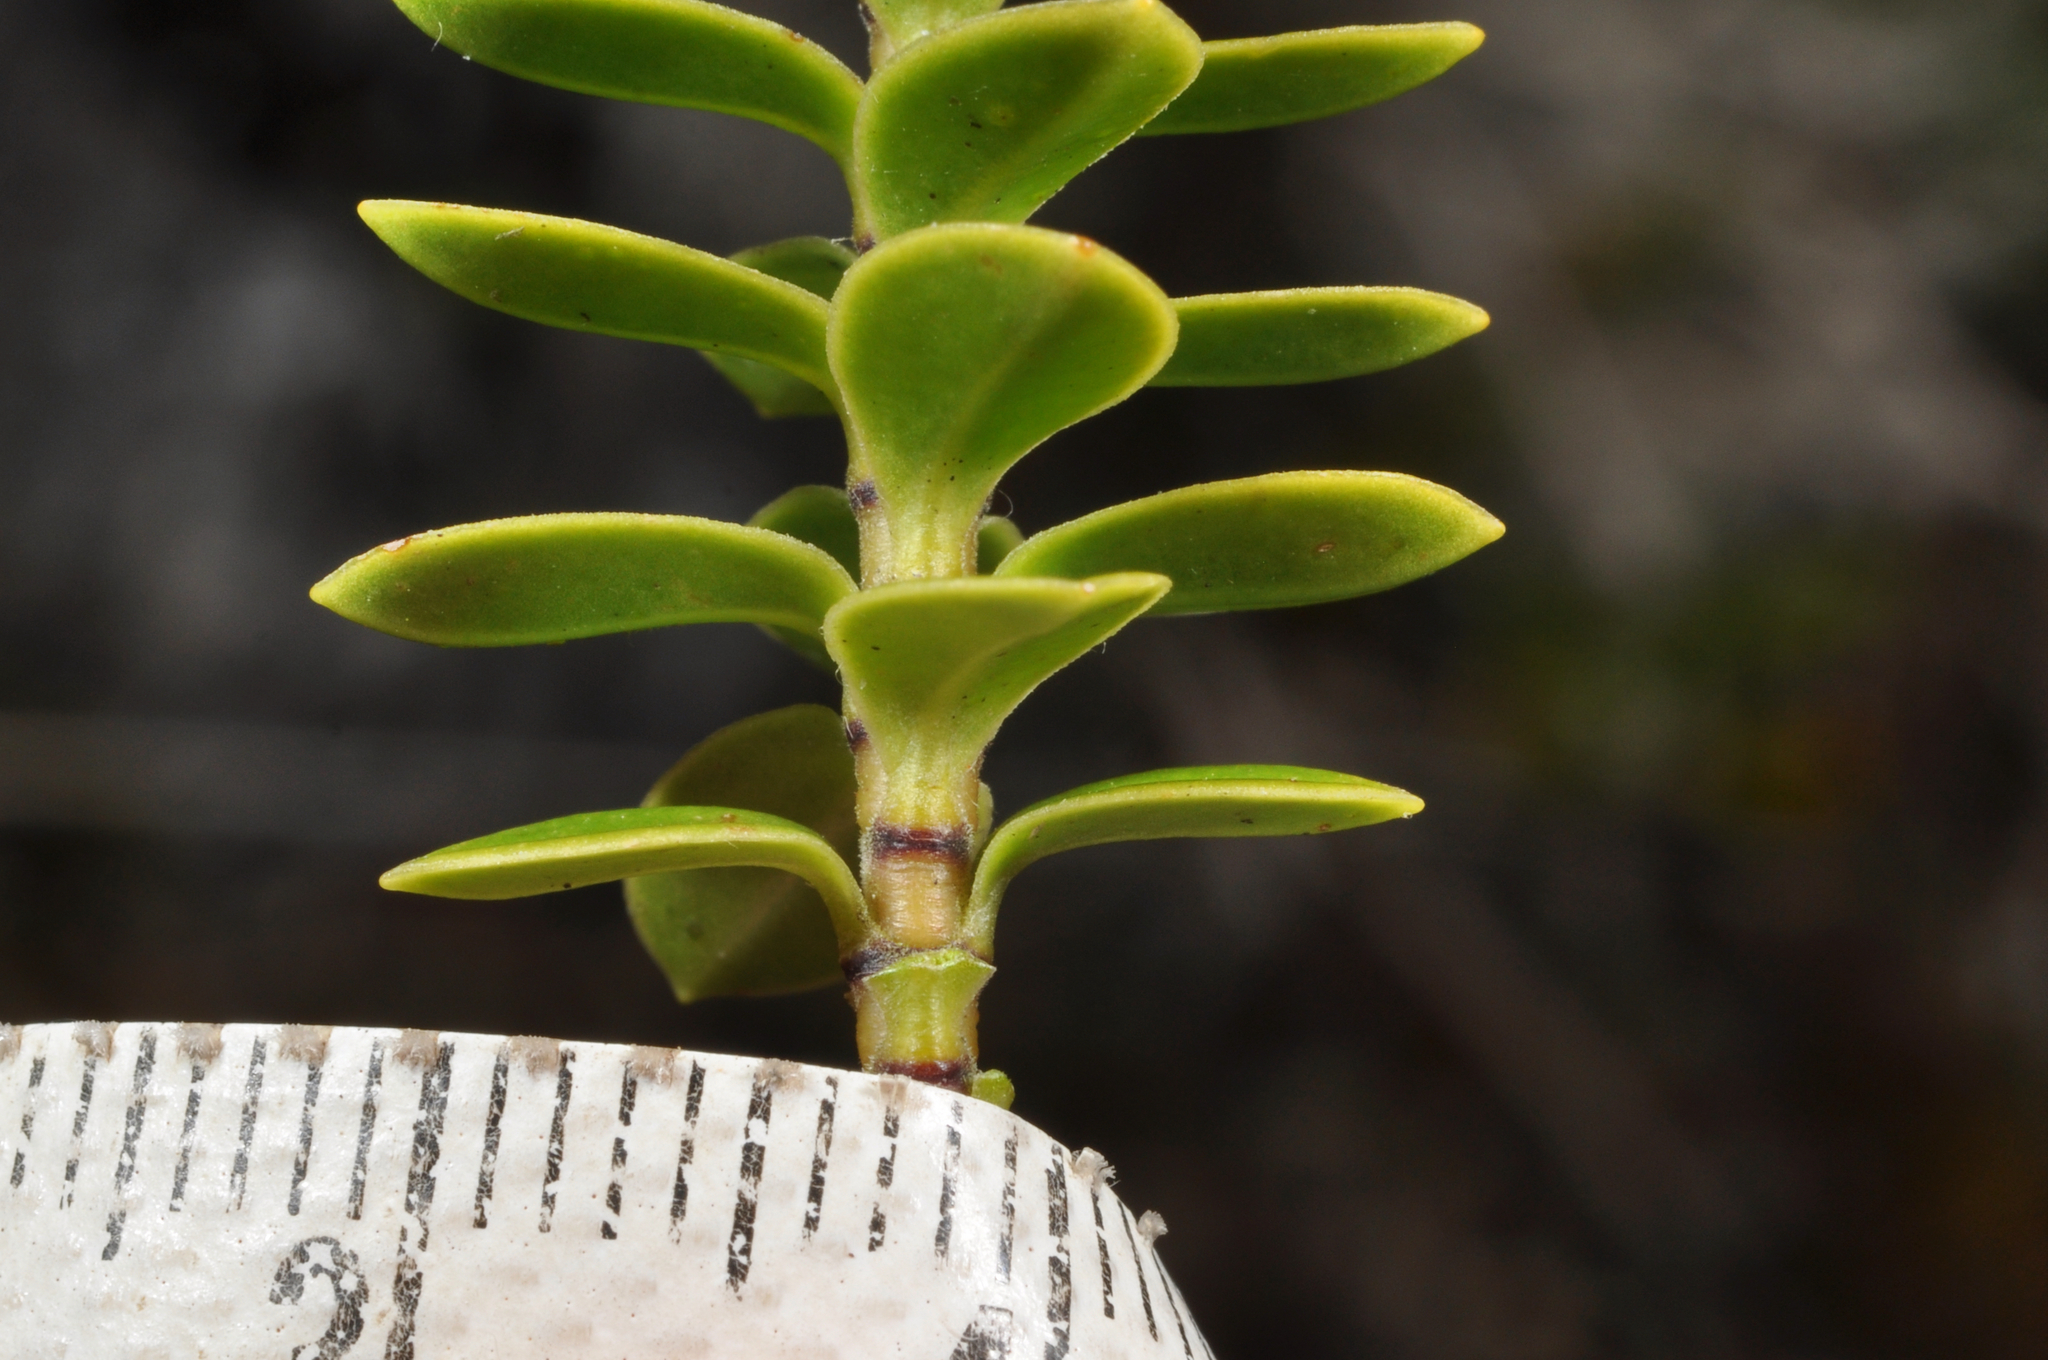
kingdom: Plantae
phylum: Tracheophyta
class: Magnoliopsida
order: Lamiales
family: Plantaginaceae
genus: Veronica
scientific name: Veronica canterburiensis
